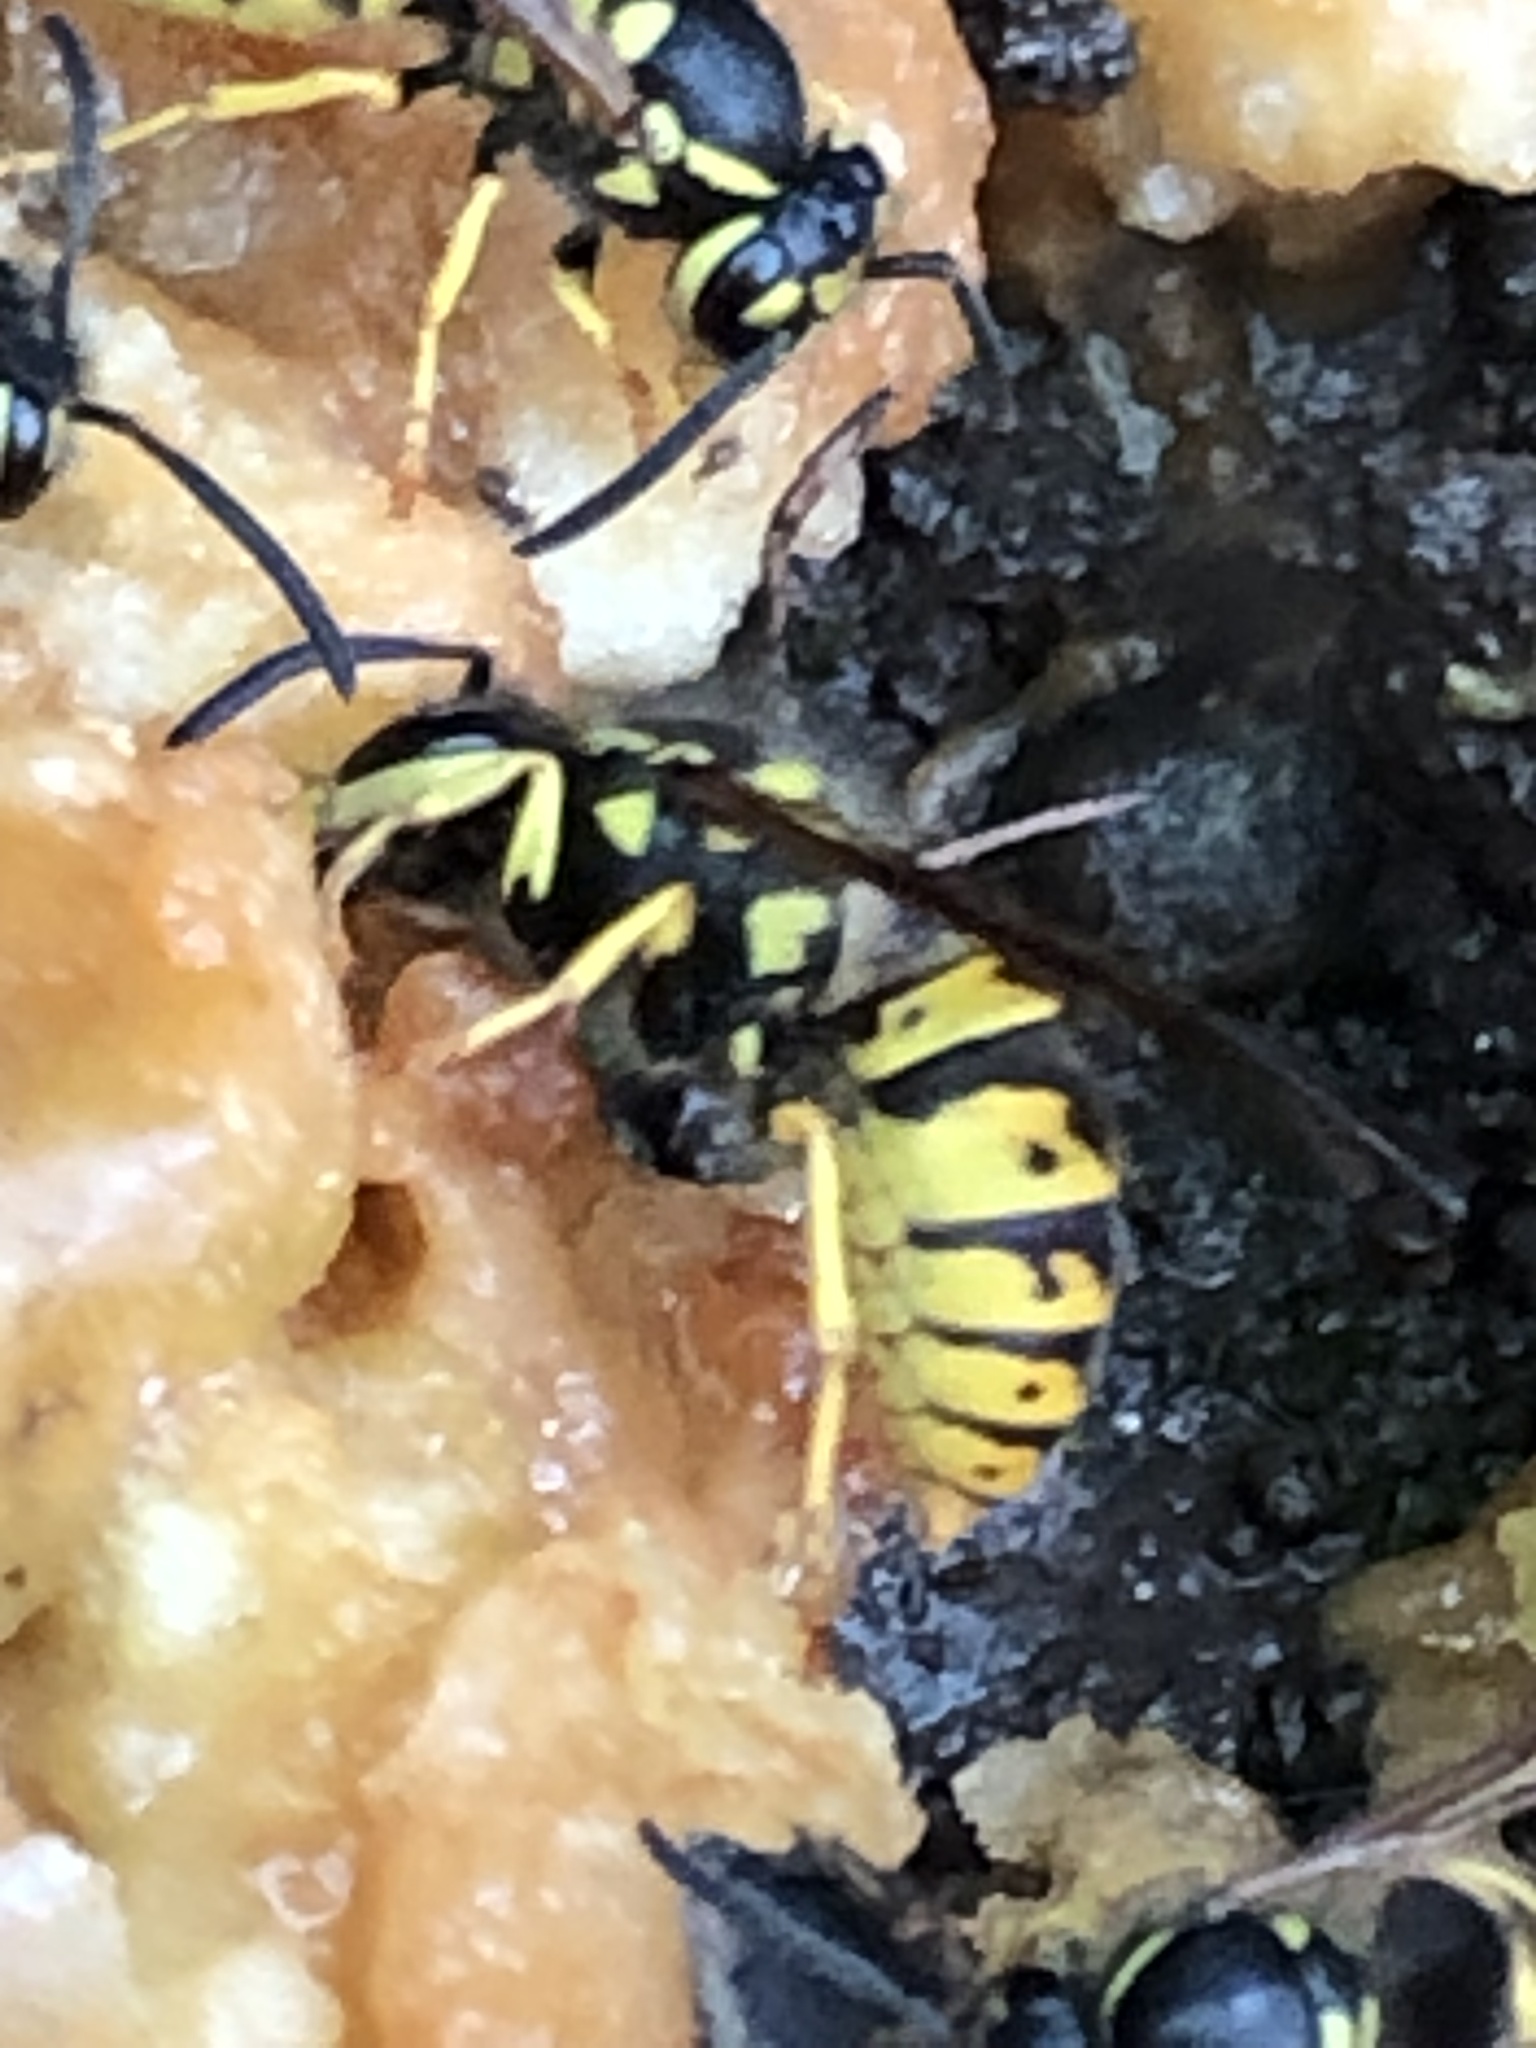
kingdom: Animalia
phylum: Arthropoda
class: Insecta
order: Hymenoptera
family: Vespidae
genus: Vespula
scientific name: Vespula germanica
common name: German wasp
